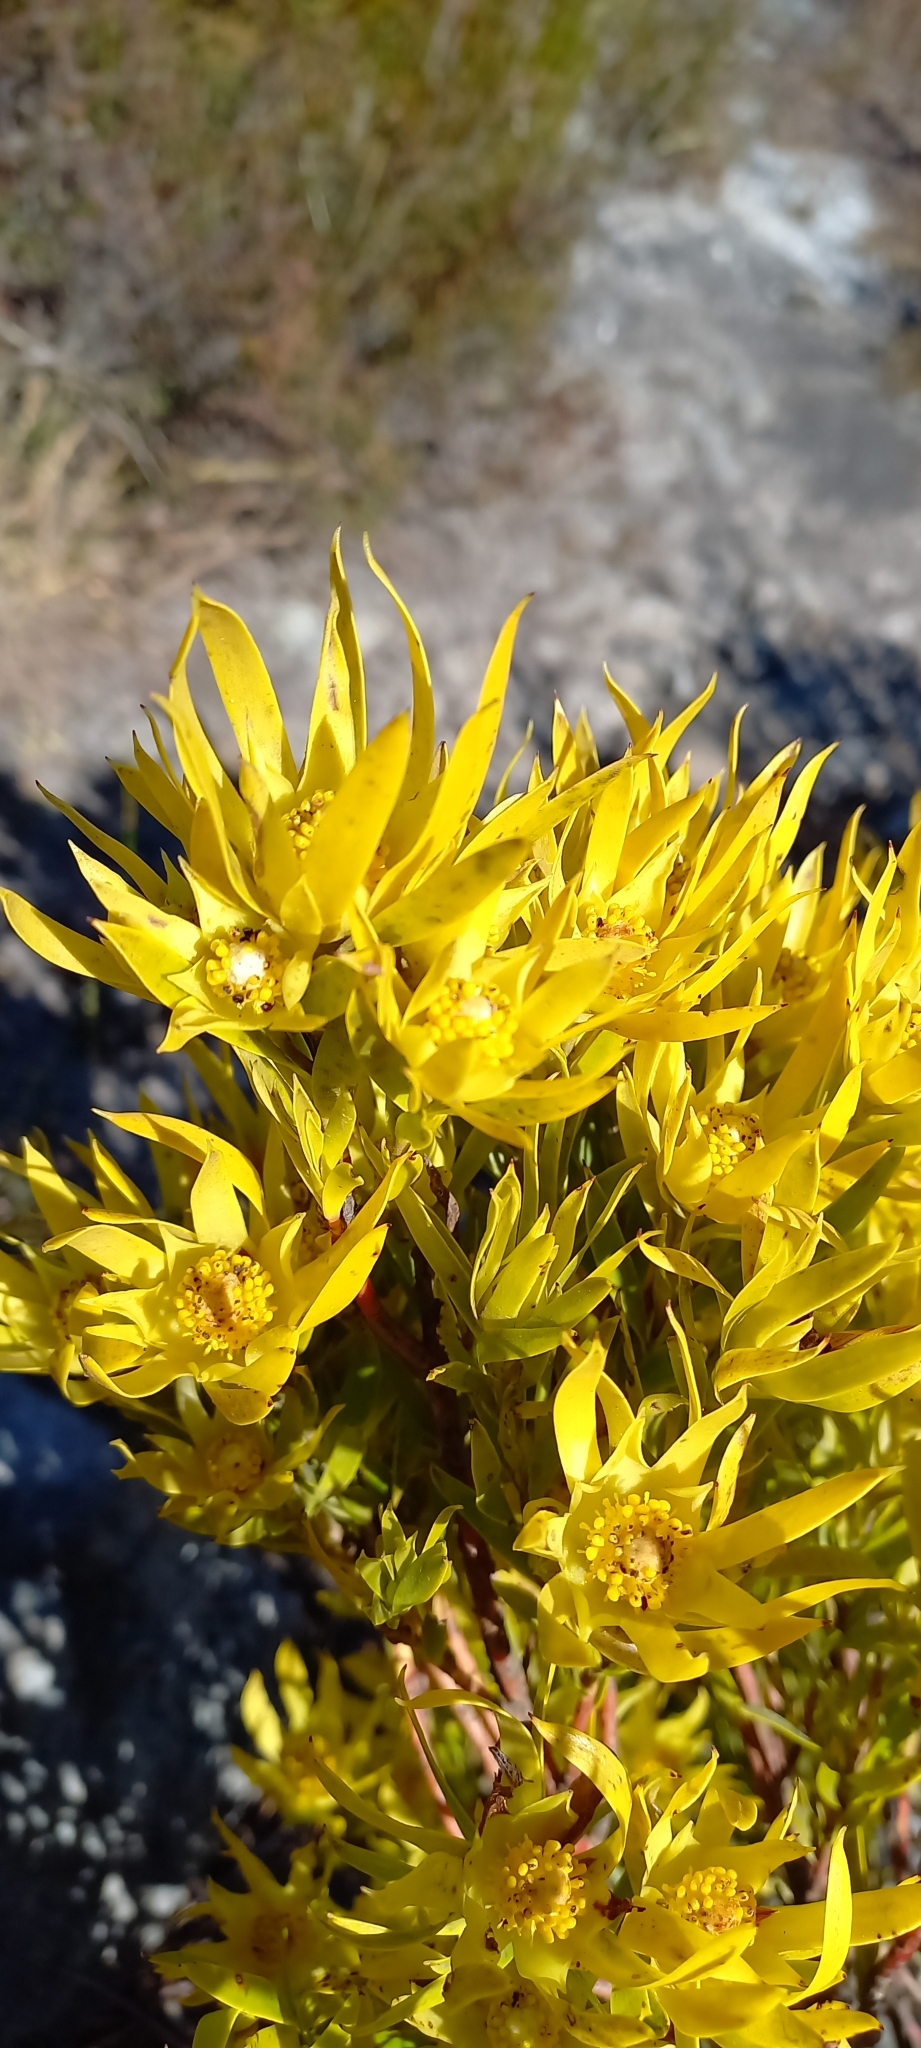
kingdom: Plantae
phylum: Tracheophyta
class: Magnoliopsida
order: Proteales
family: Proteaceae
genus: Leucadendron
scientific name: Leucadendron xanthoconus
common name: Sickle-leaf conebush
